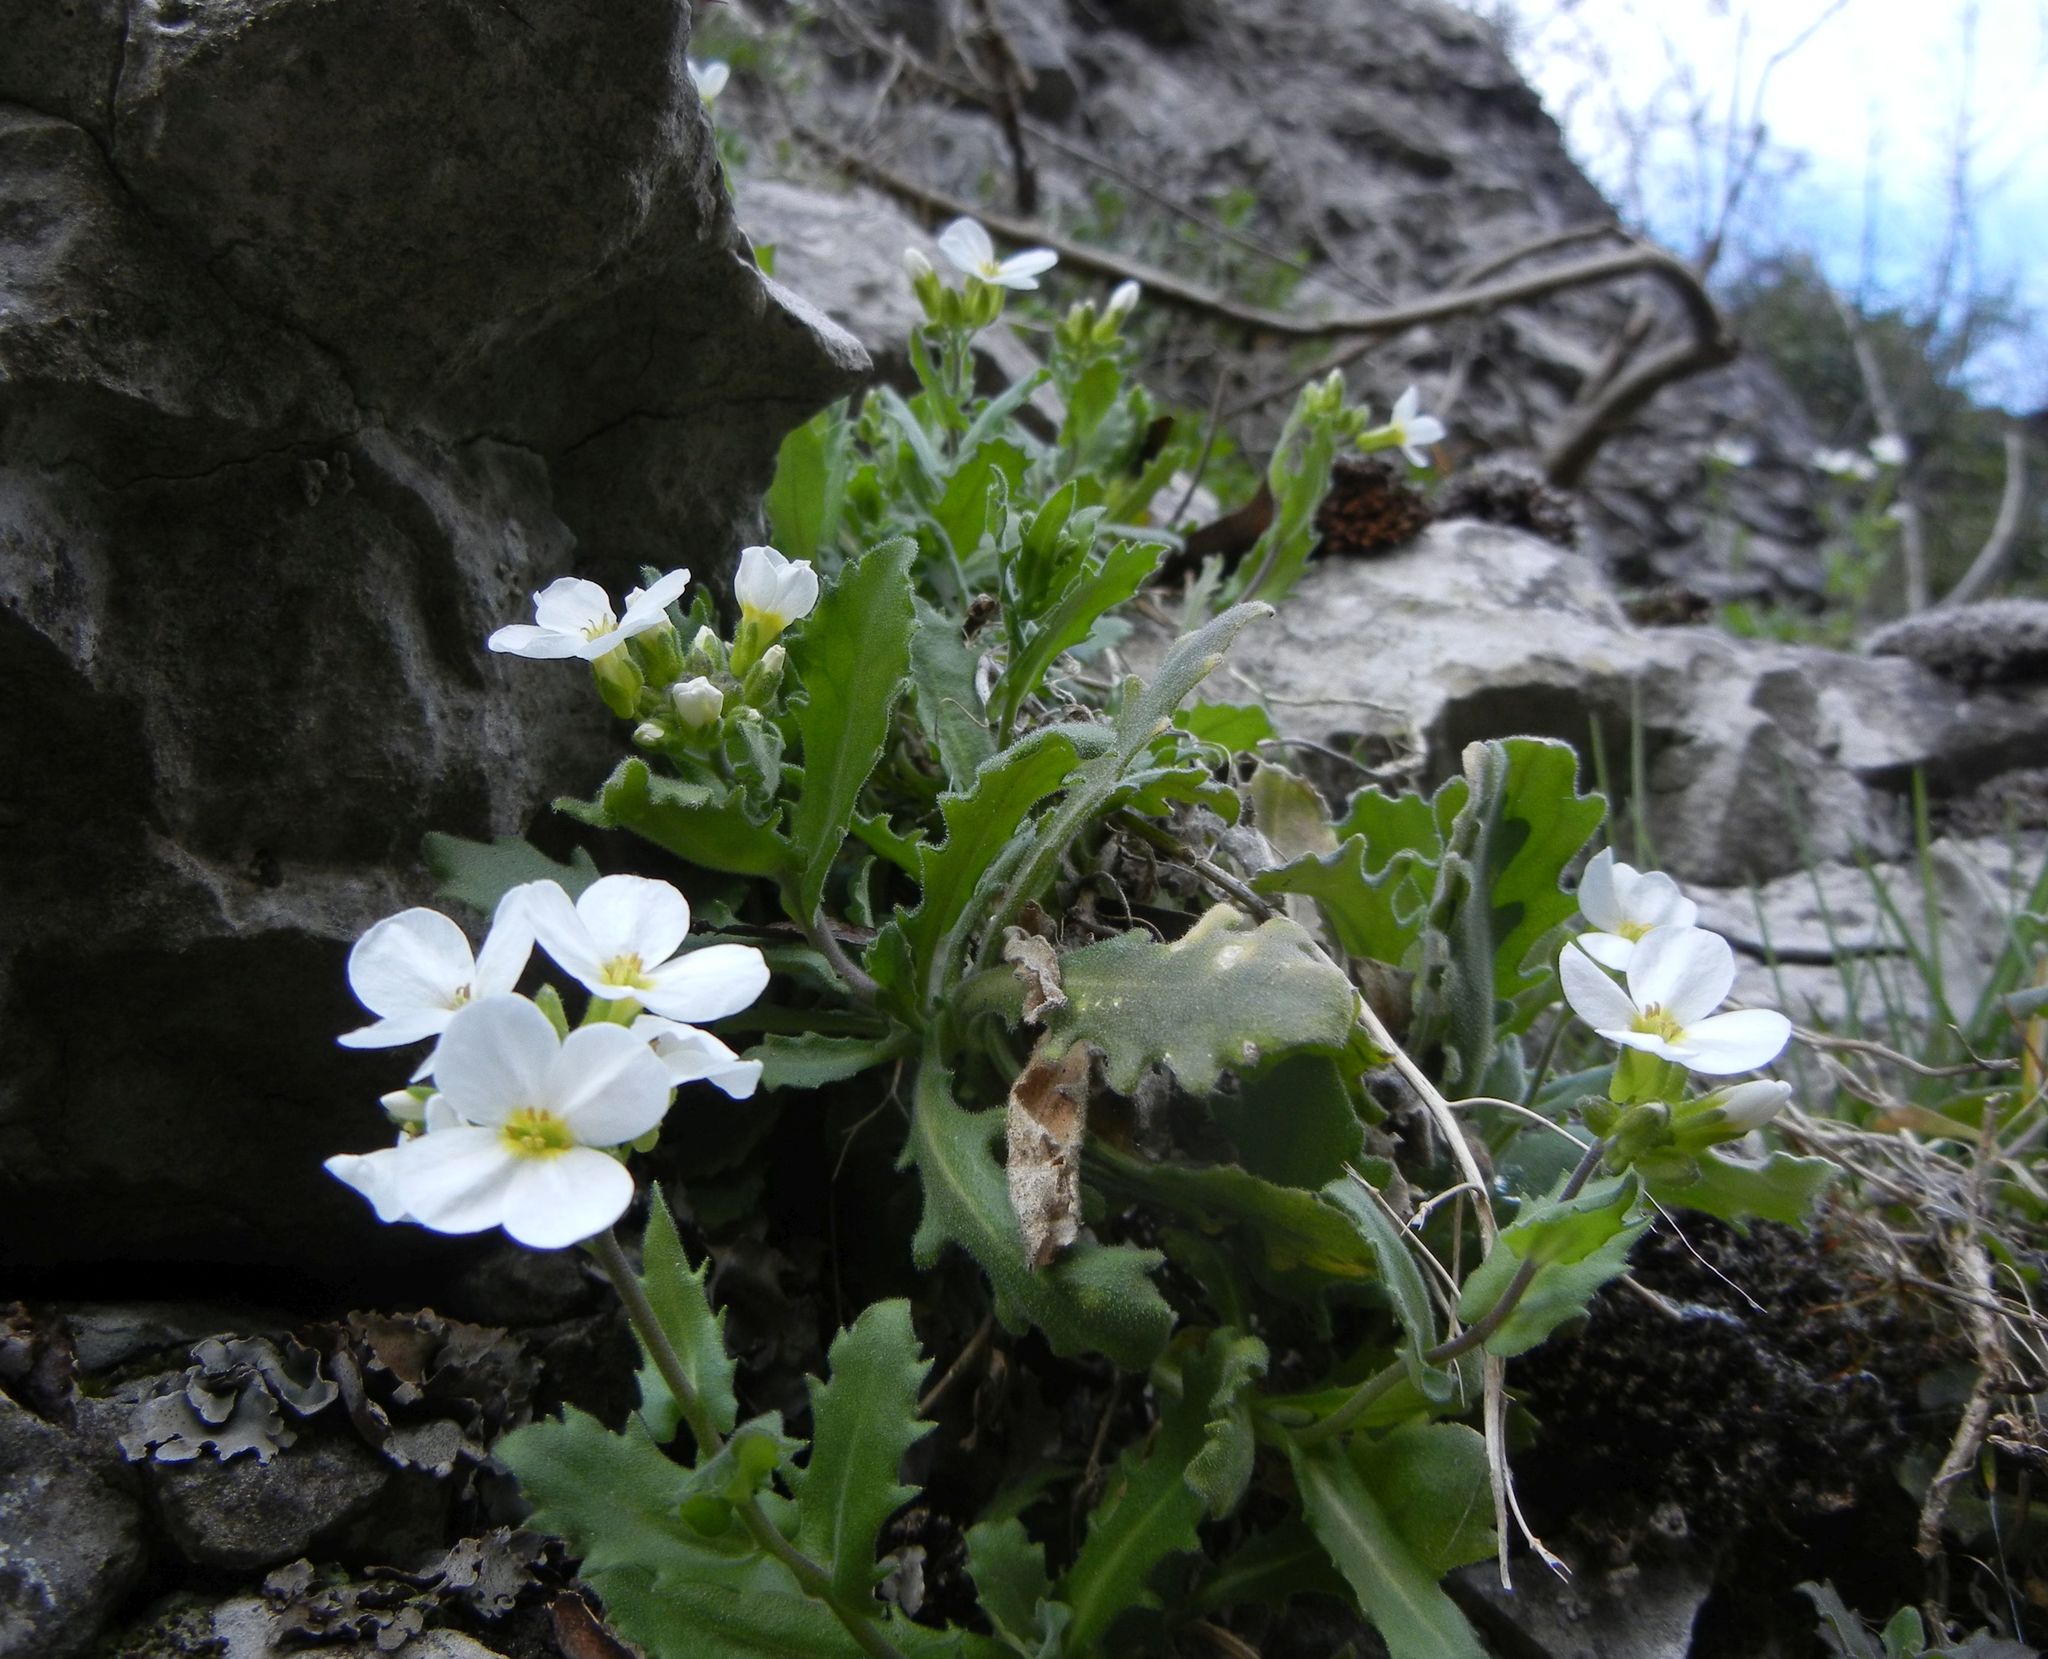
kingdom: Plantae
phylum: Tracheophyta
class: Magnoliopsida
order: Brassicales
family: Brassicaceae
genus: Arabis
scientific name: Arabis caucasica
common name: Gray rockcress
